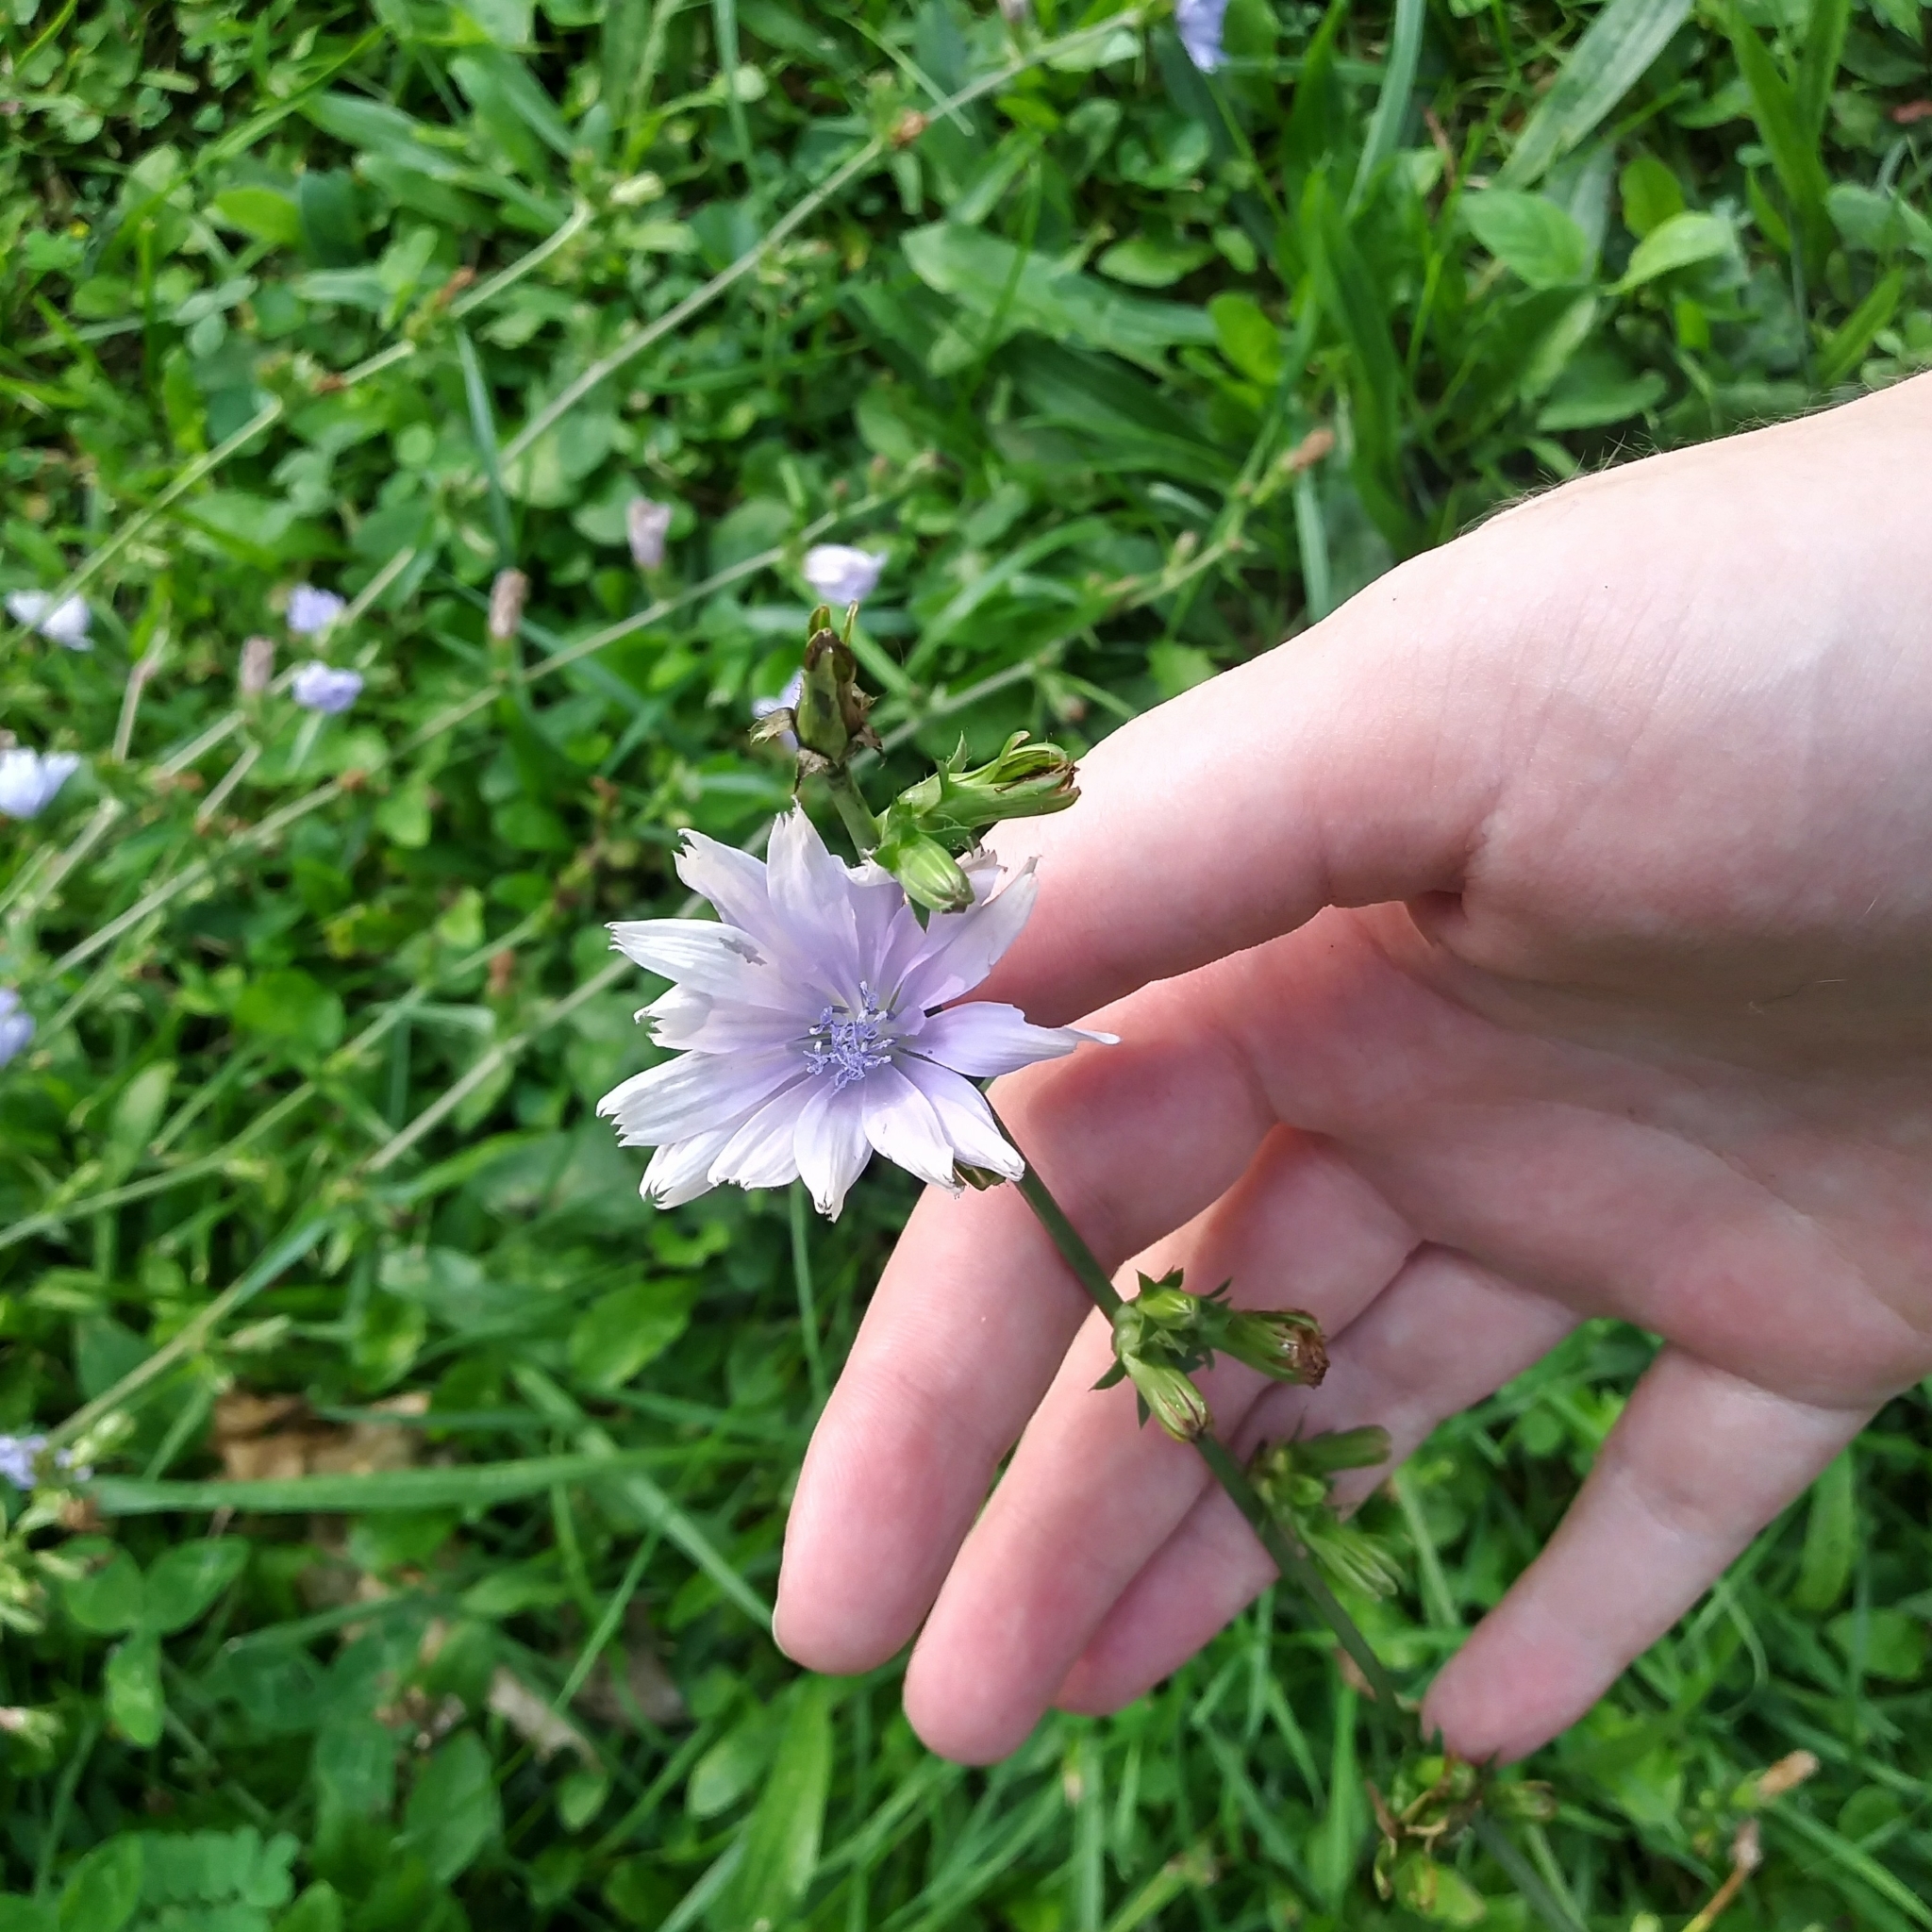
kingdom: Plantae
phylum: Tracheophyta
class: Magnoliopsida
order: Asterales
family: Asteraceae
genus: Cichorium
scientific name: Cichorium intybus
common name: Chicory
